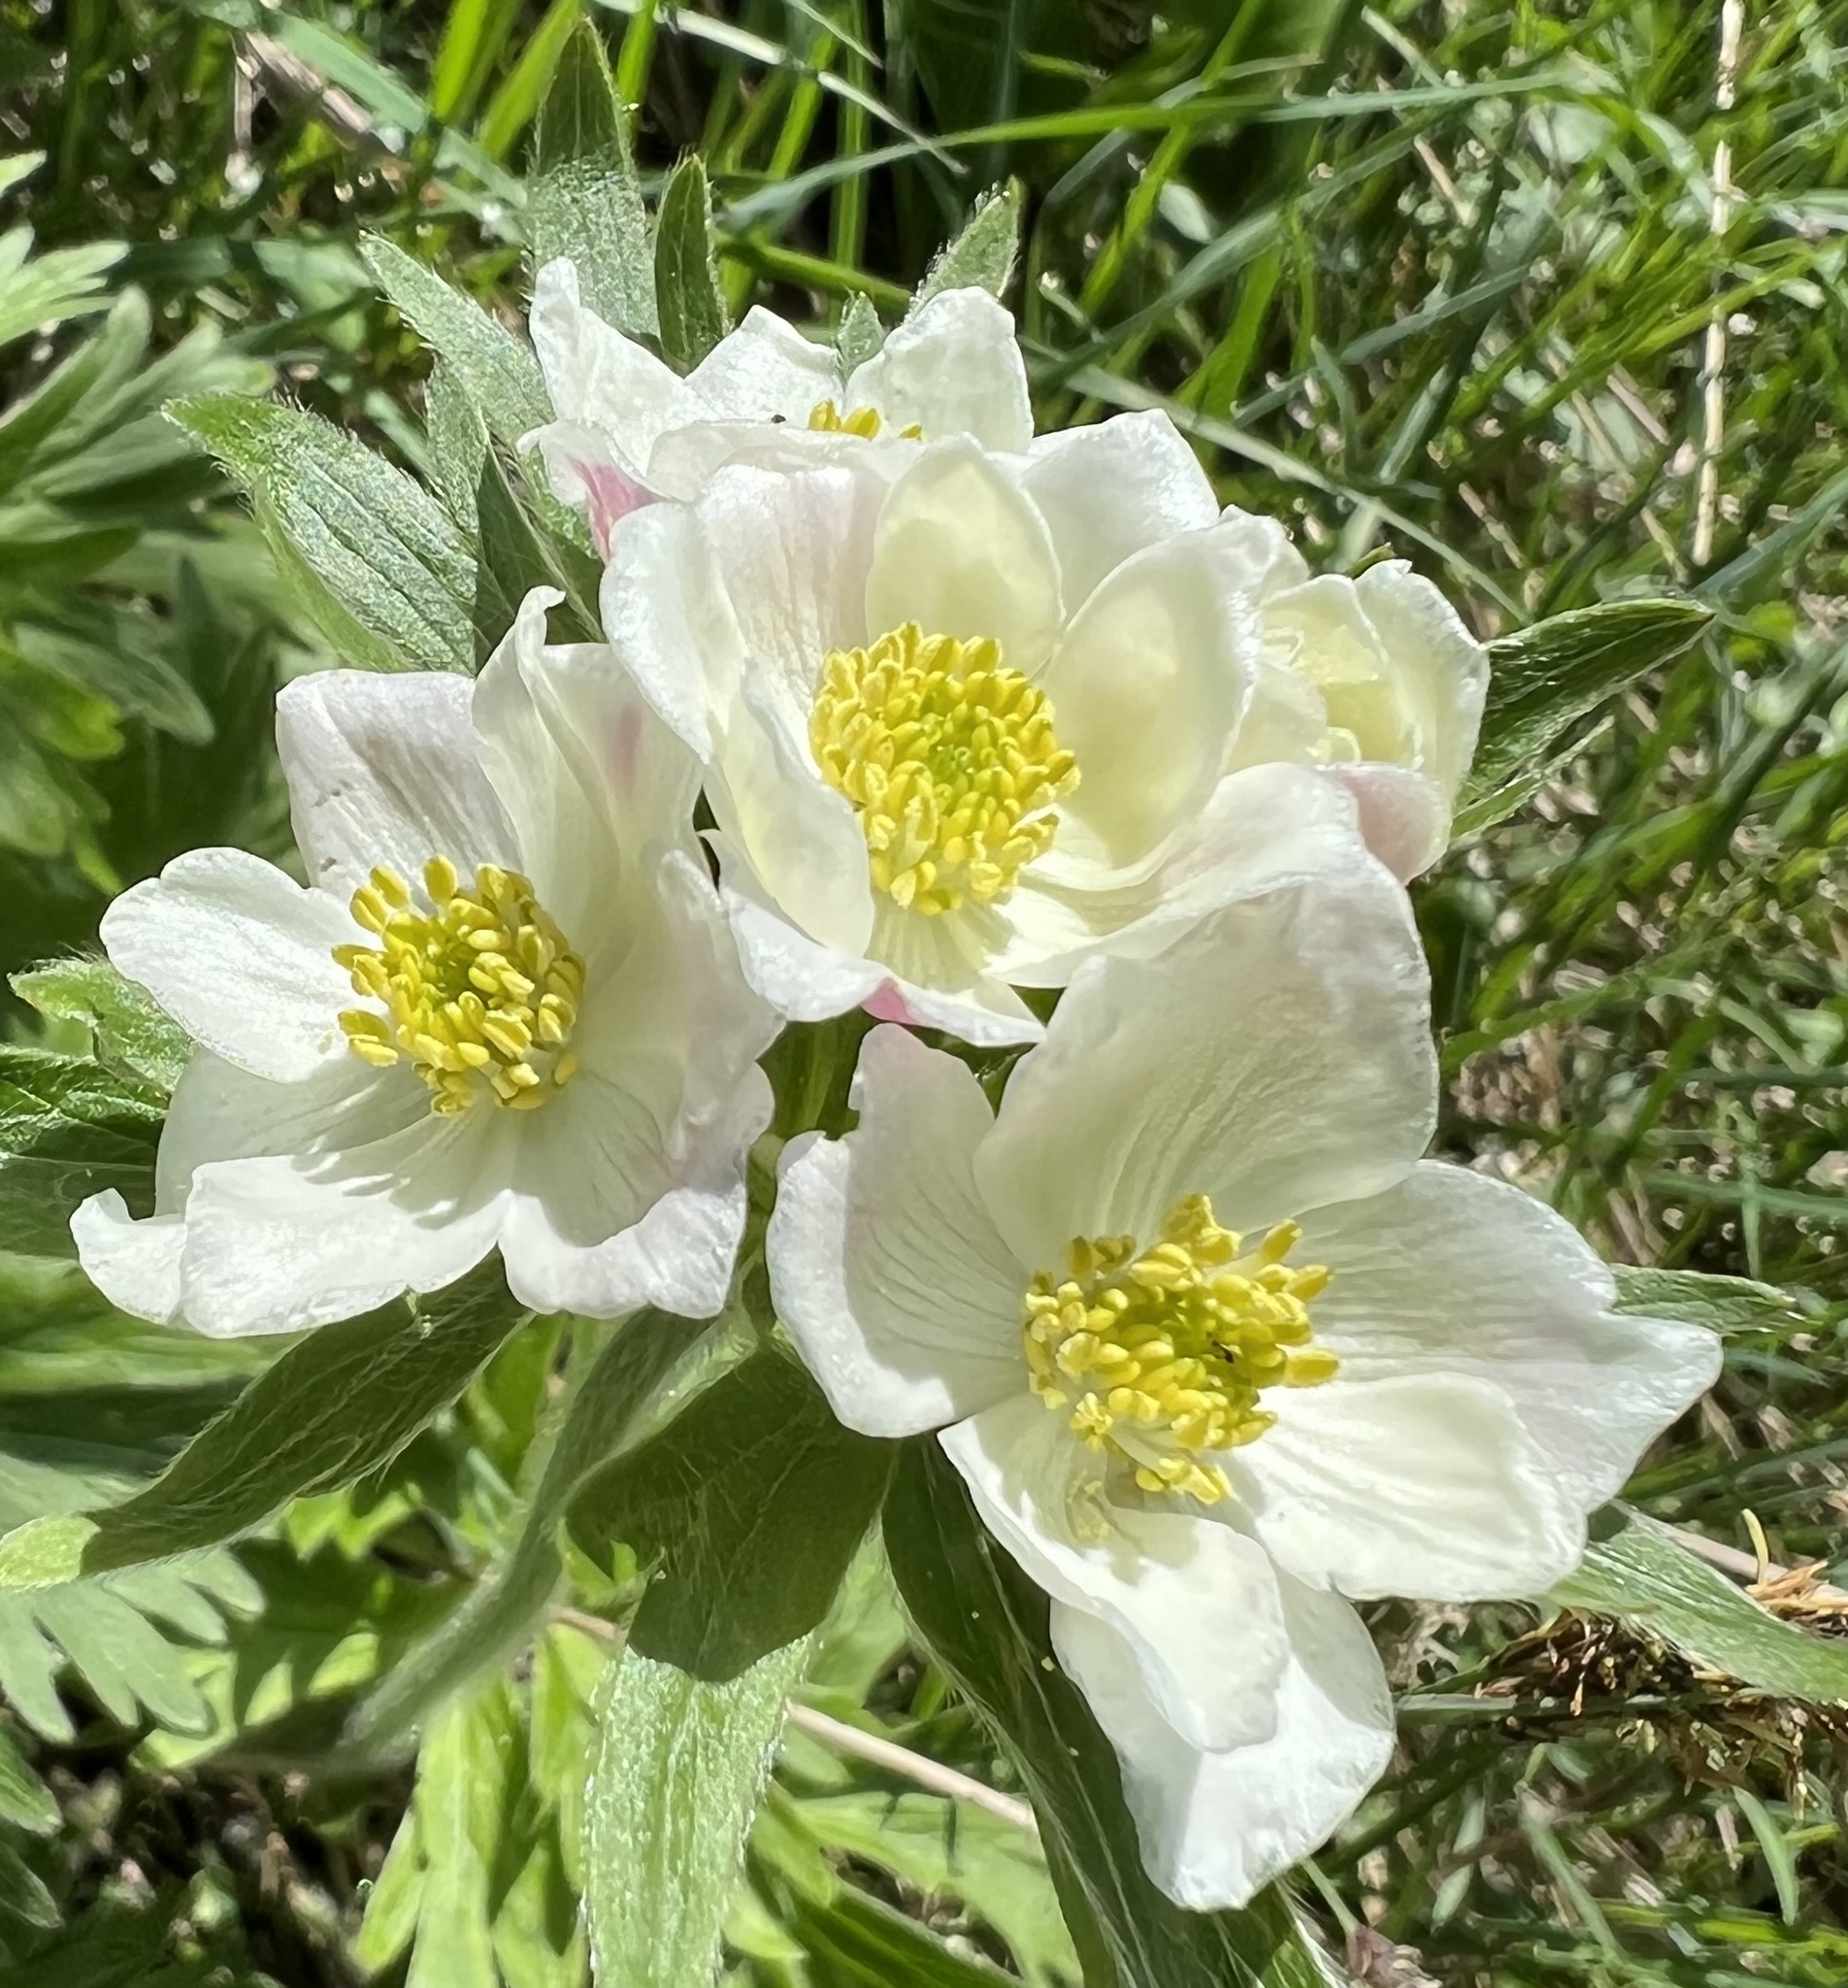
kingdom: Plantae
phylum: Tracheophyta
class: Magnoliopsida
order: Ranunculales
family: Ranunculaceae
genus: Anemonastrum
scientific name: Anemonastrum narcissiflorum
